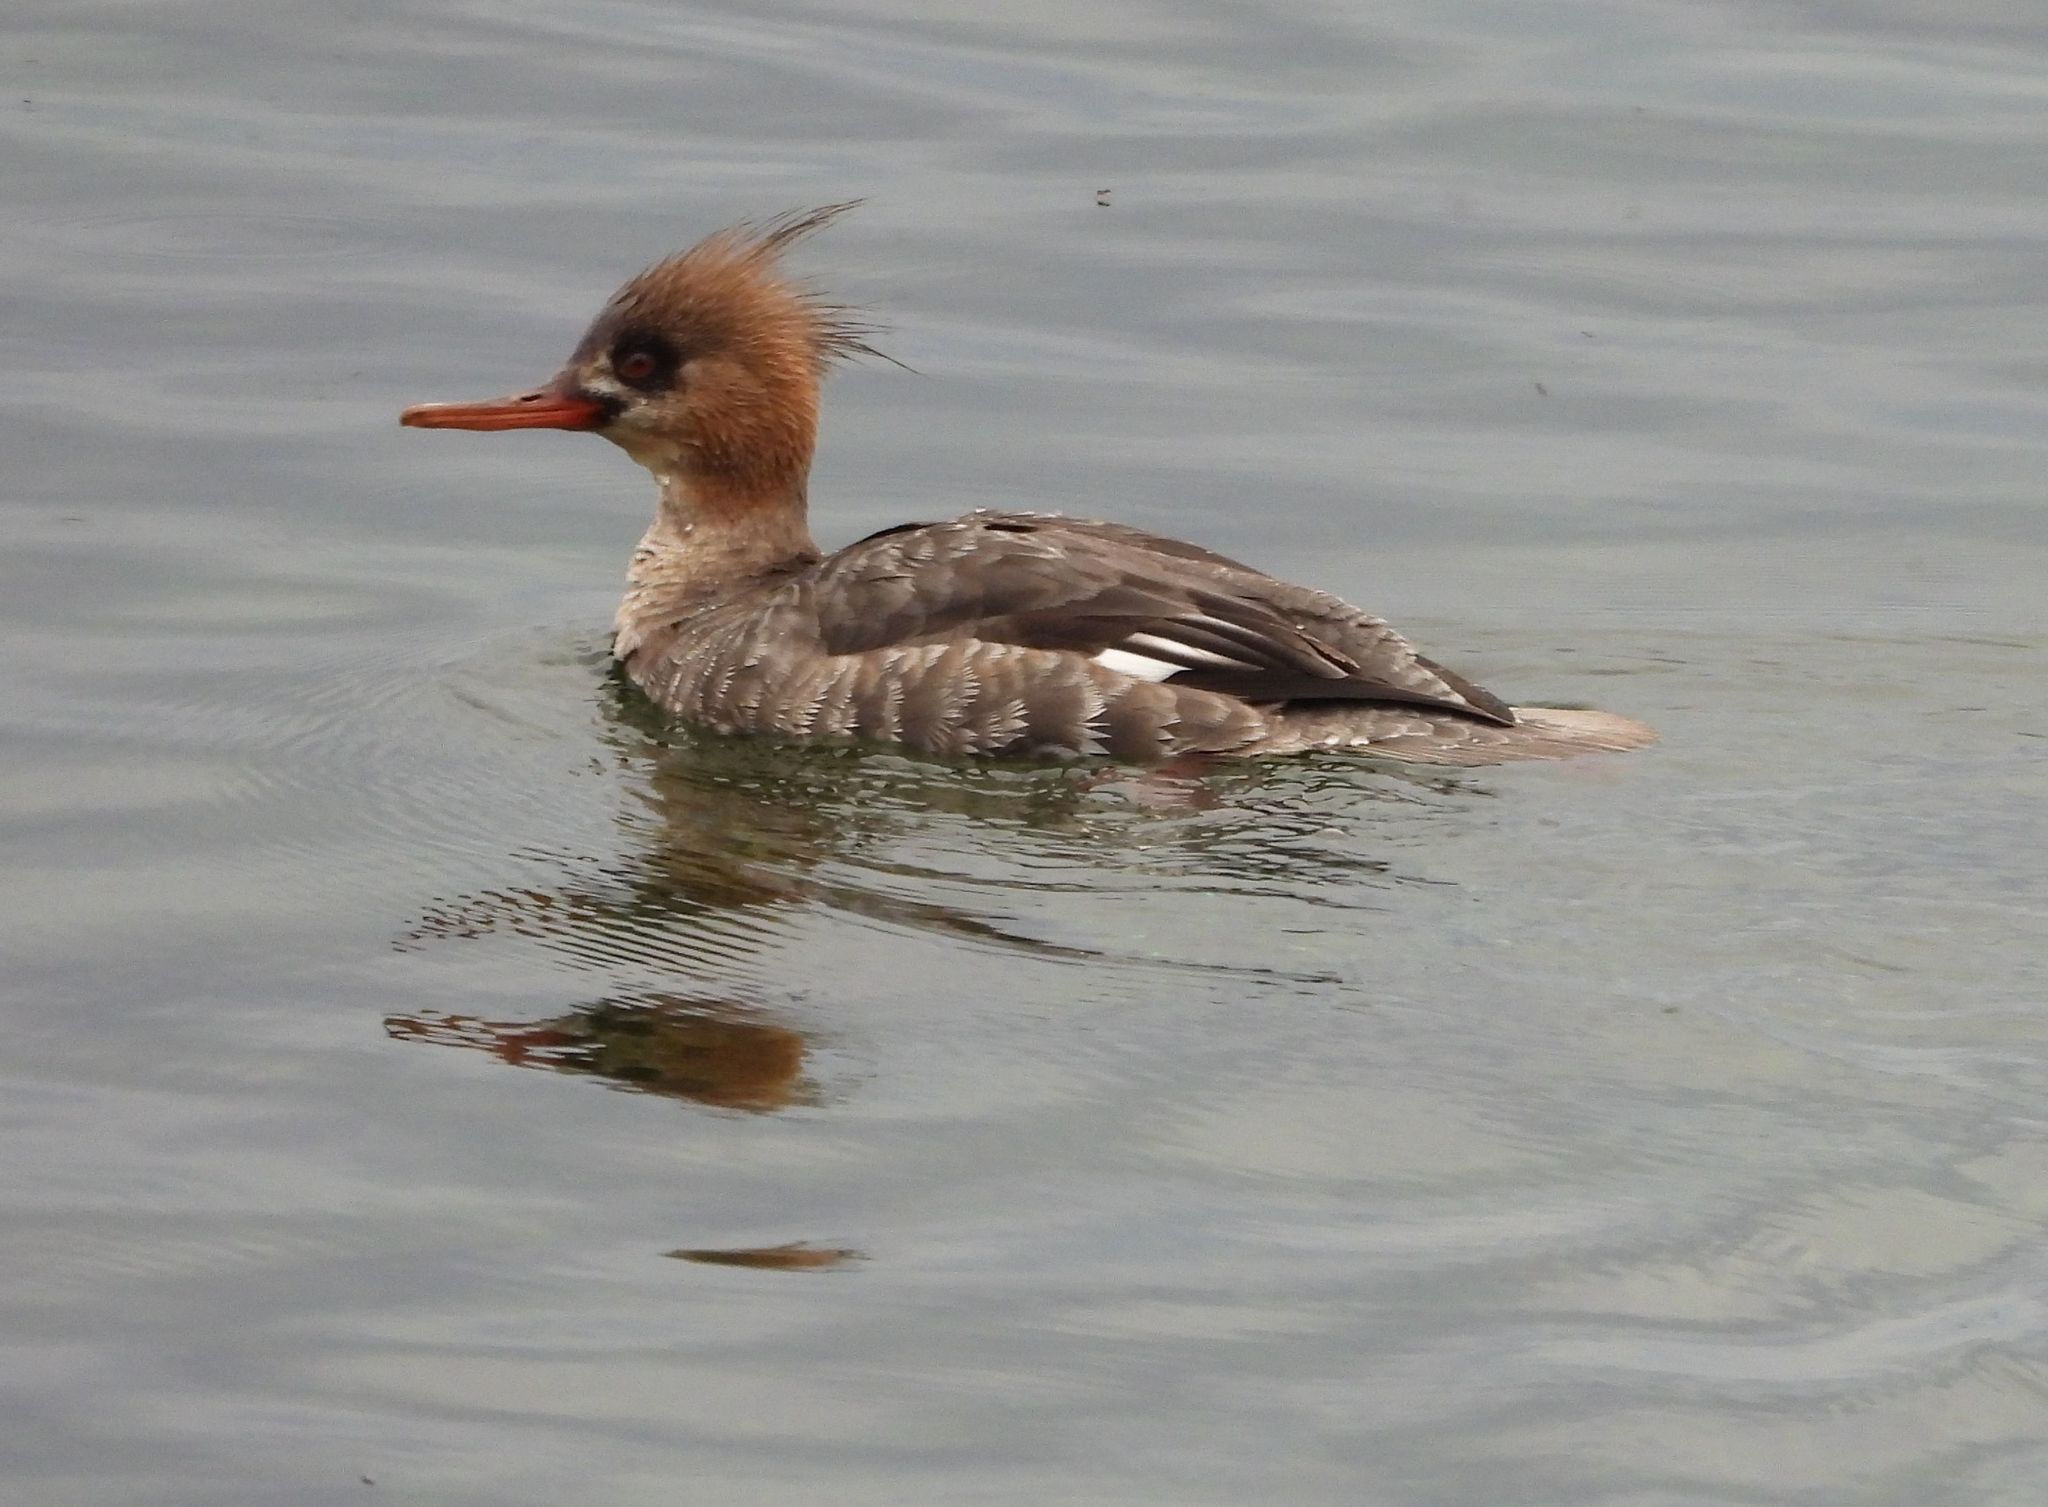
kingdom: Animalia
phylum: Chordata
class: Aves
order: Anseriformes
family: Anatidae
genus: Mergus
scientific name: Mergus serrator
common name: Red-breasted merganser
